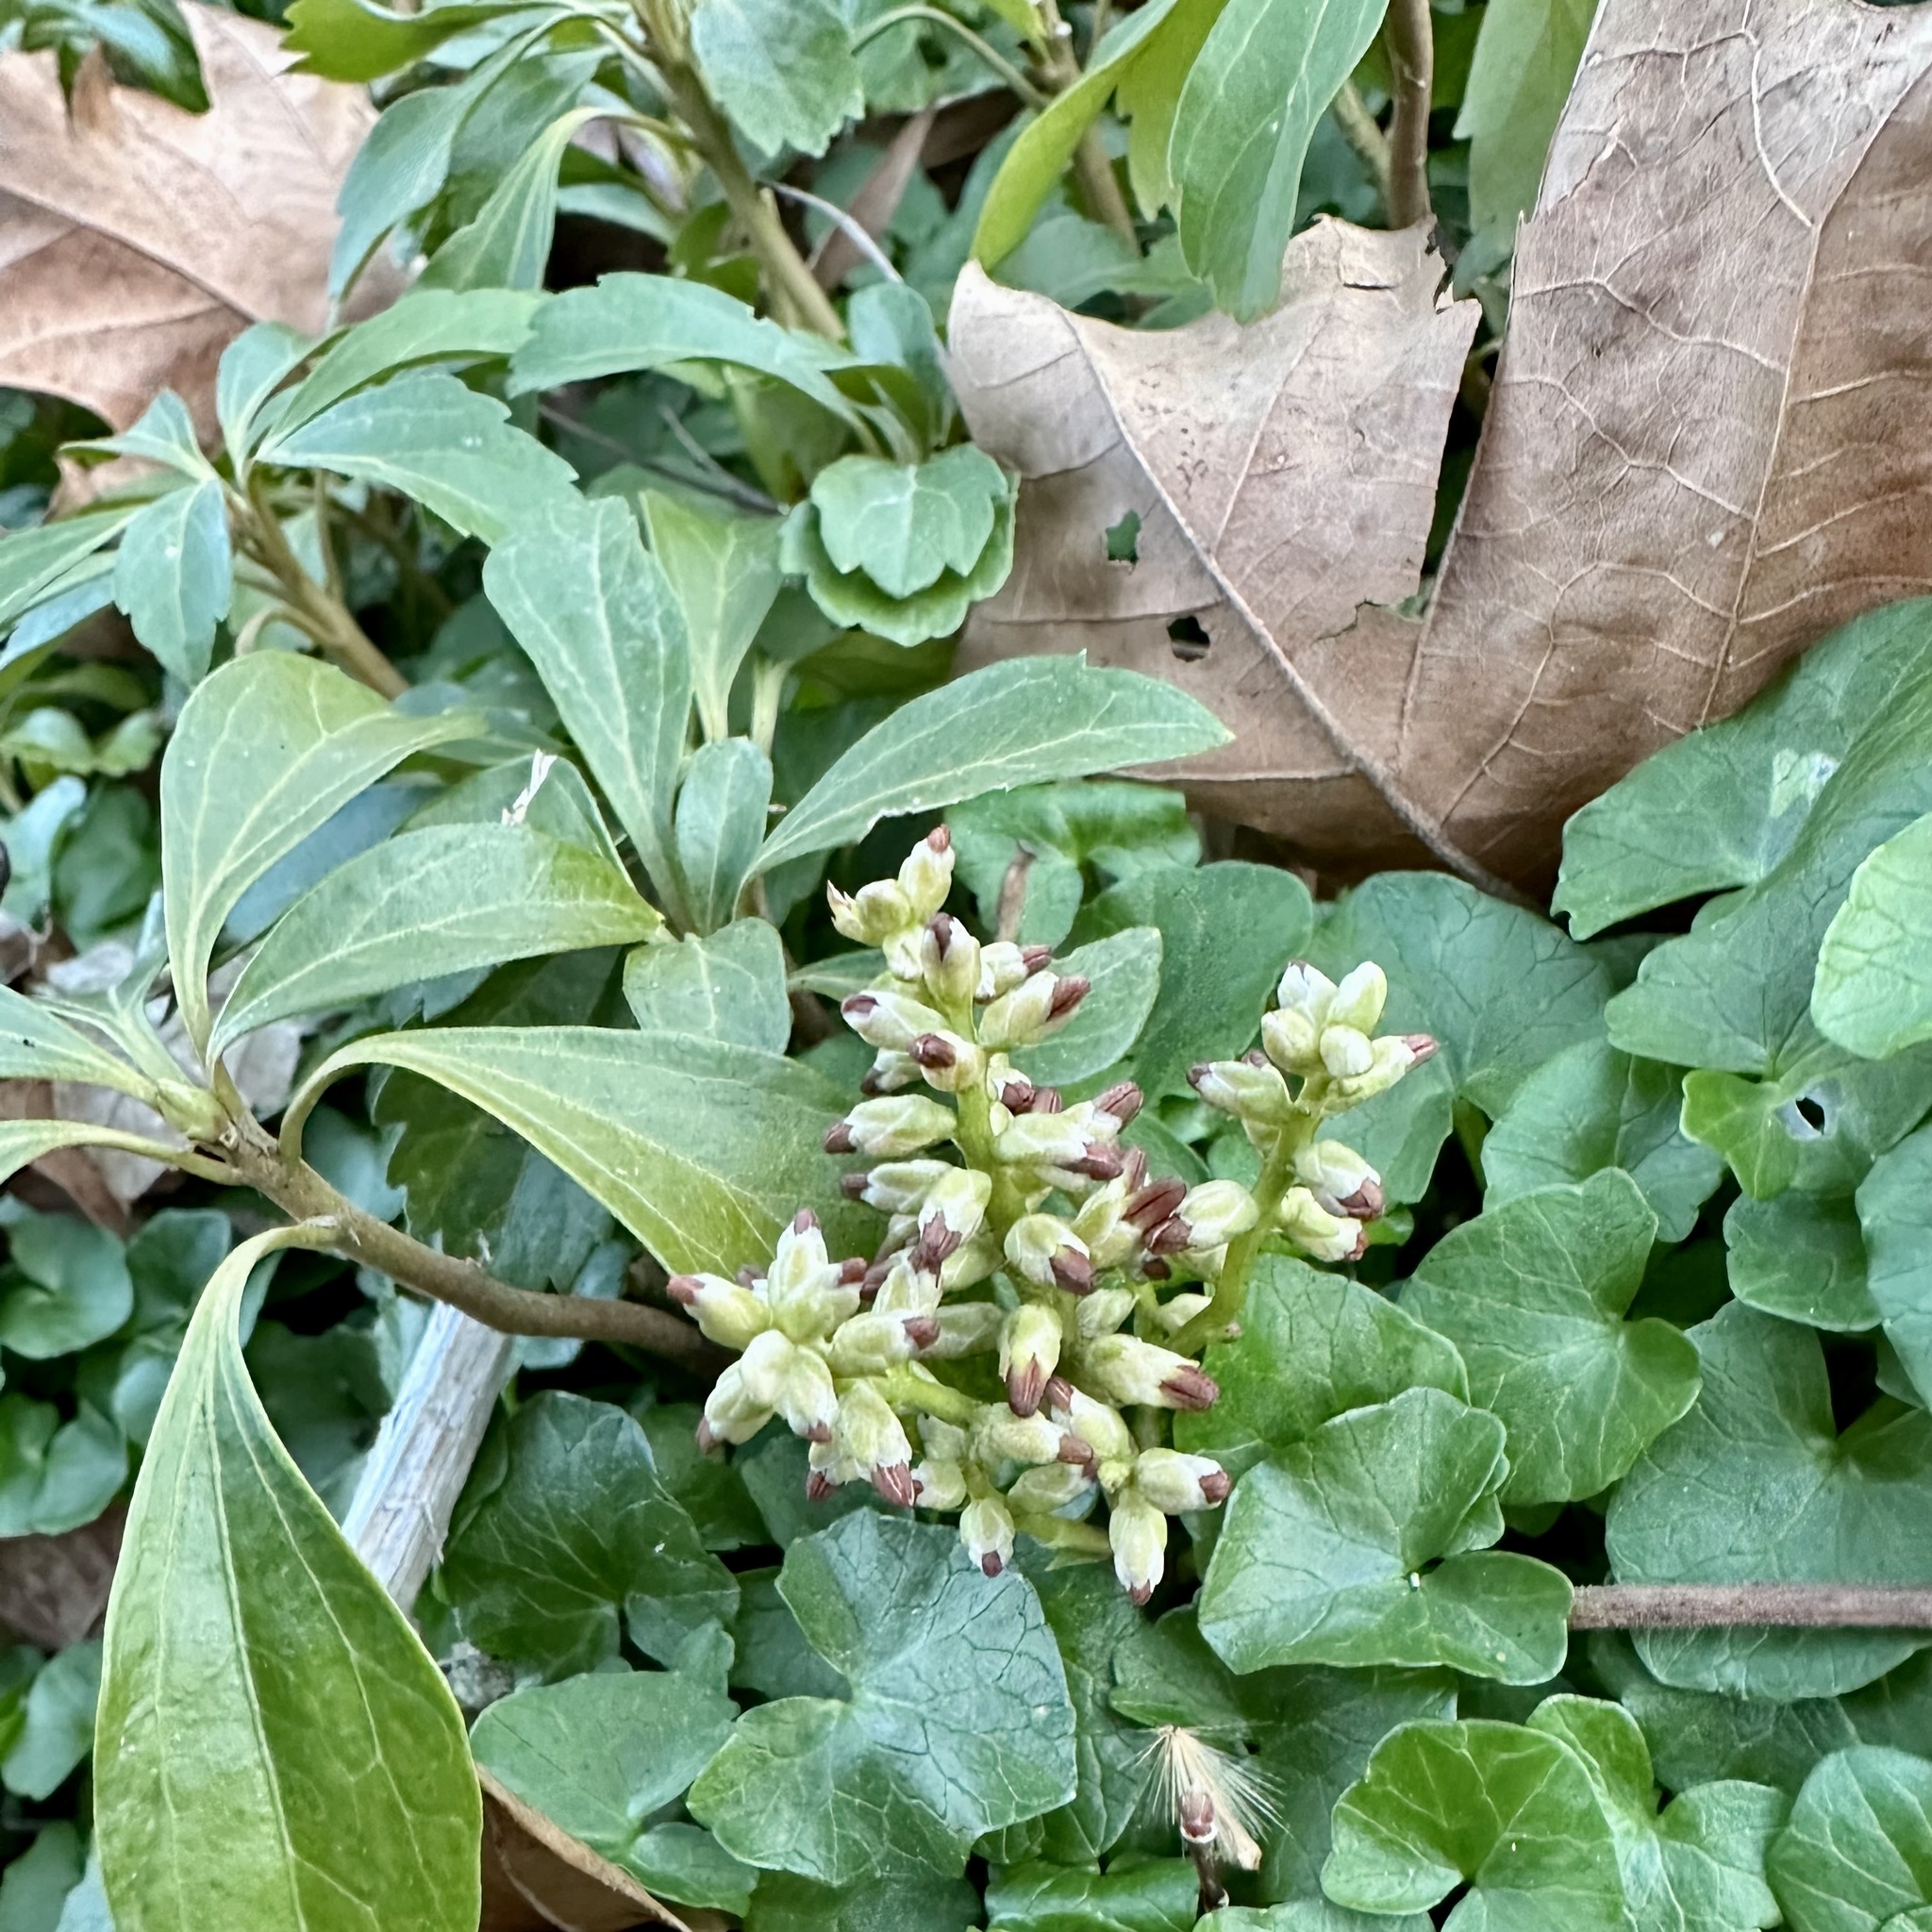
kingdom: Plantae
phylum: Tracheophyta
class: Magnoliopsida
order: Buxales
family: Buxaceae
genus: Pachysandra
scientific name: Pachysandra terminalis
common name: Japanese pachysandra
